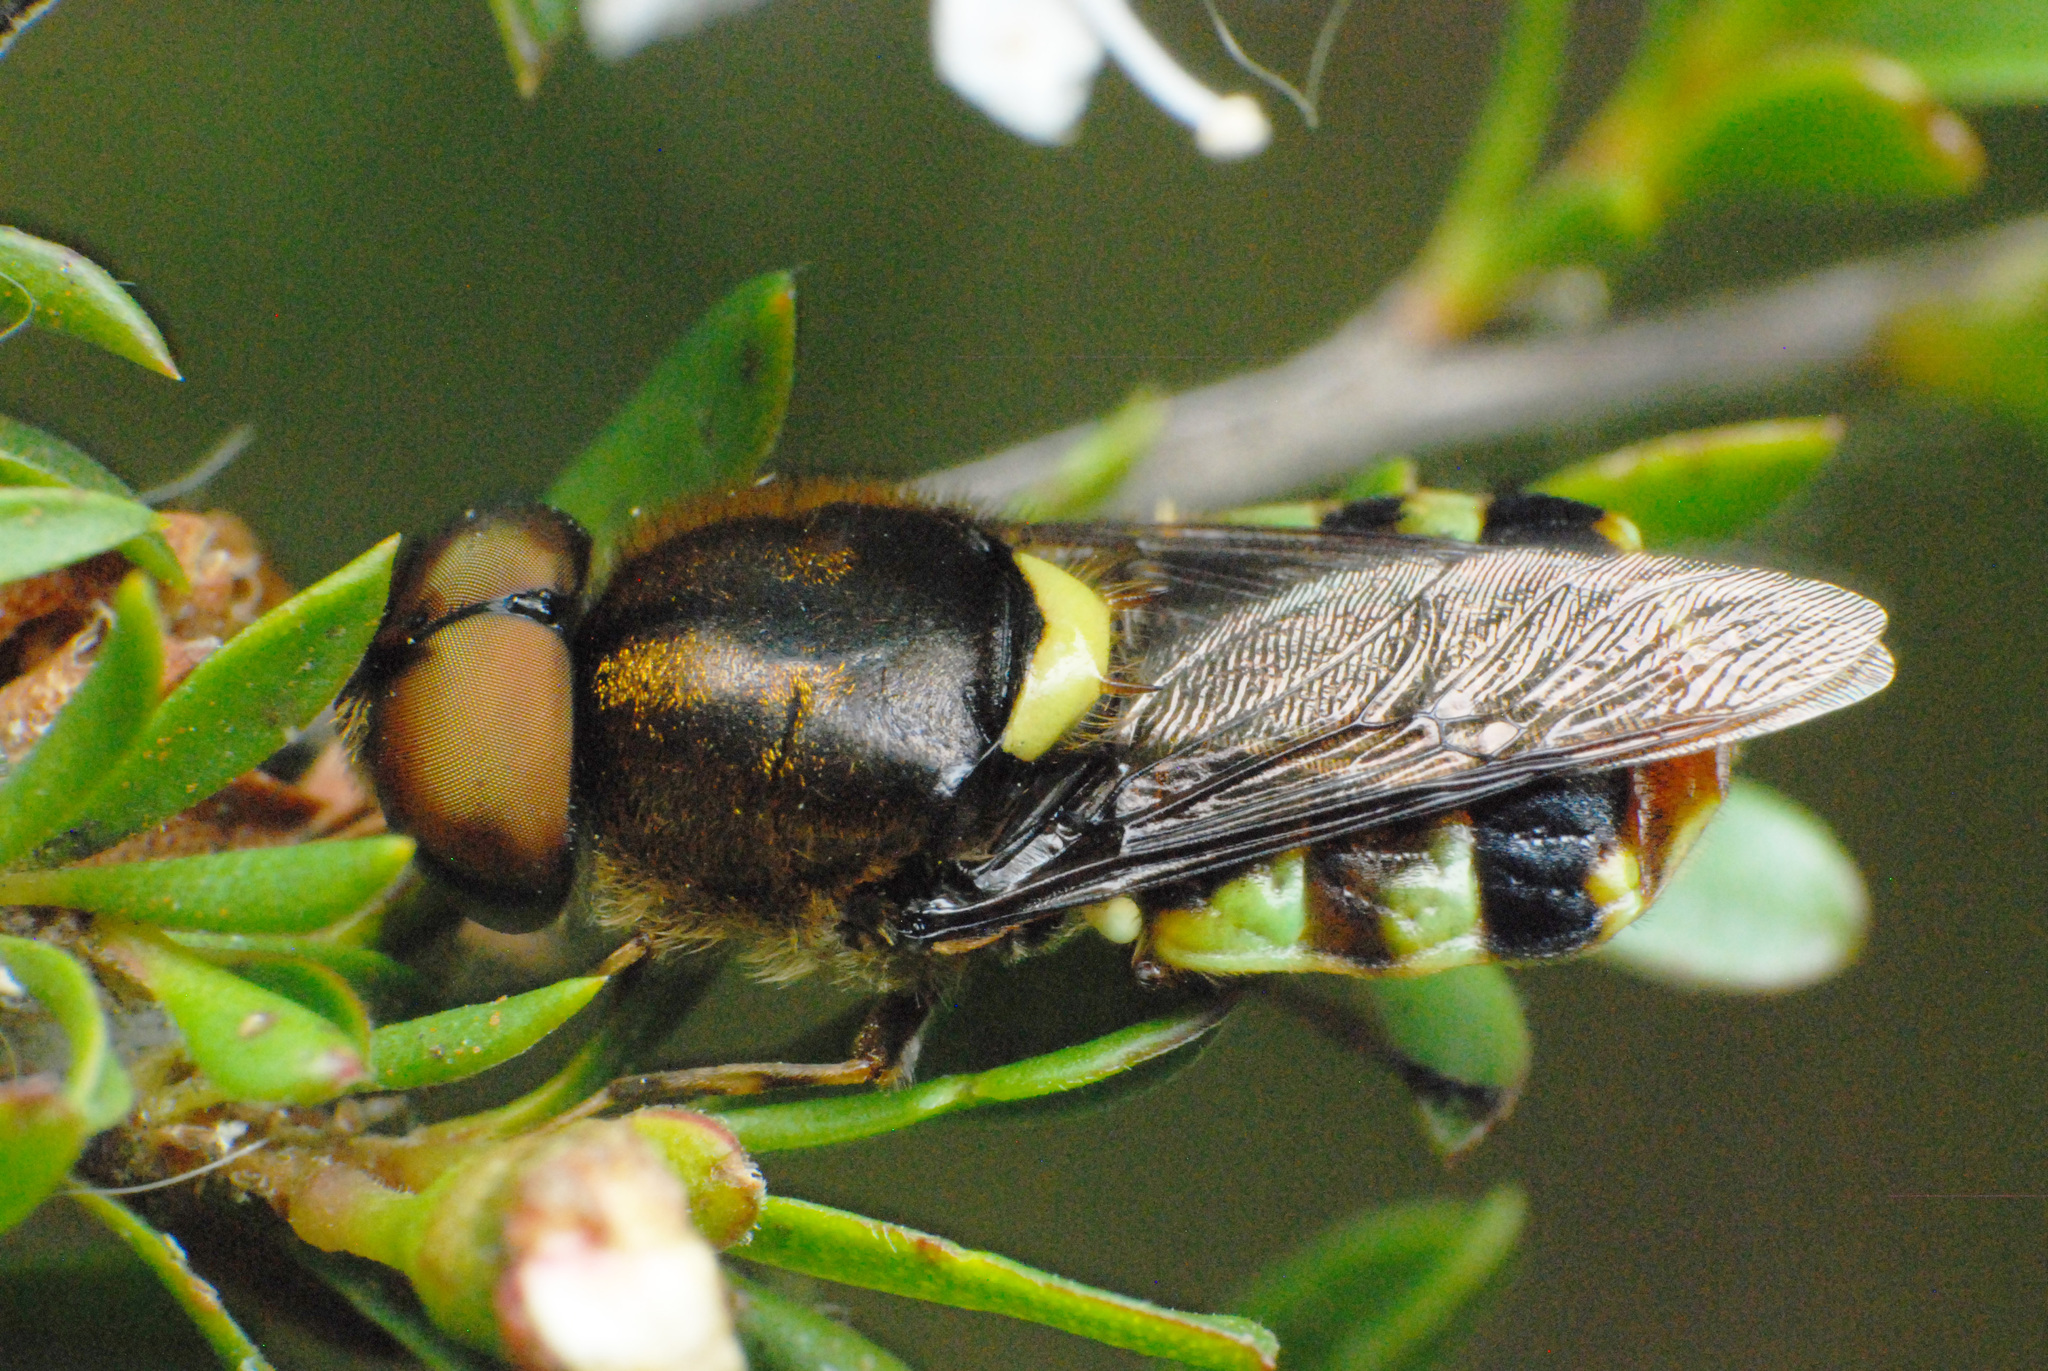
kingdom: Animalia
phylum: Arthropoda
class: Insecta
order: Diptera
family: Stratiomyidae
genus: Odontomyia
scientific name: Odontomyia hunteri
